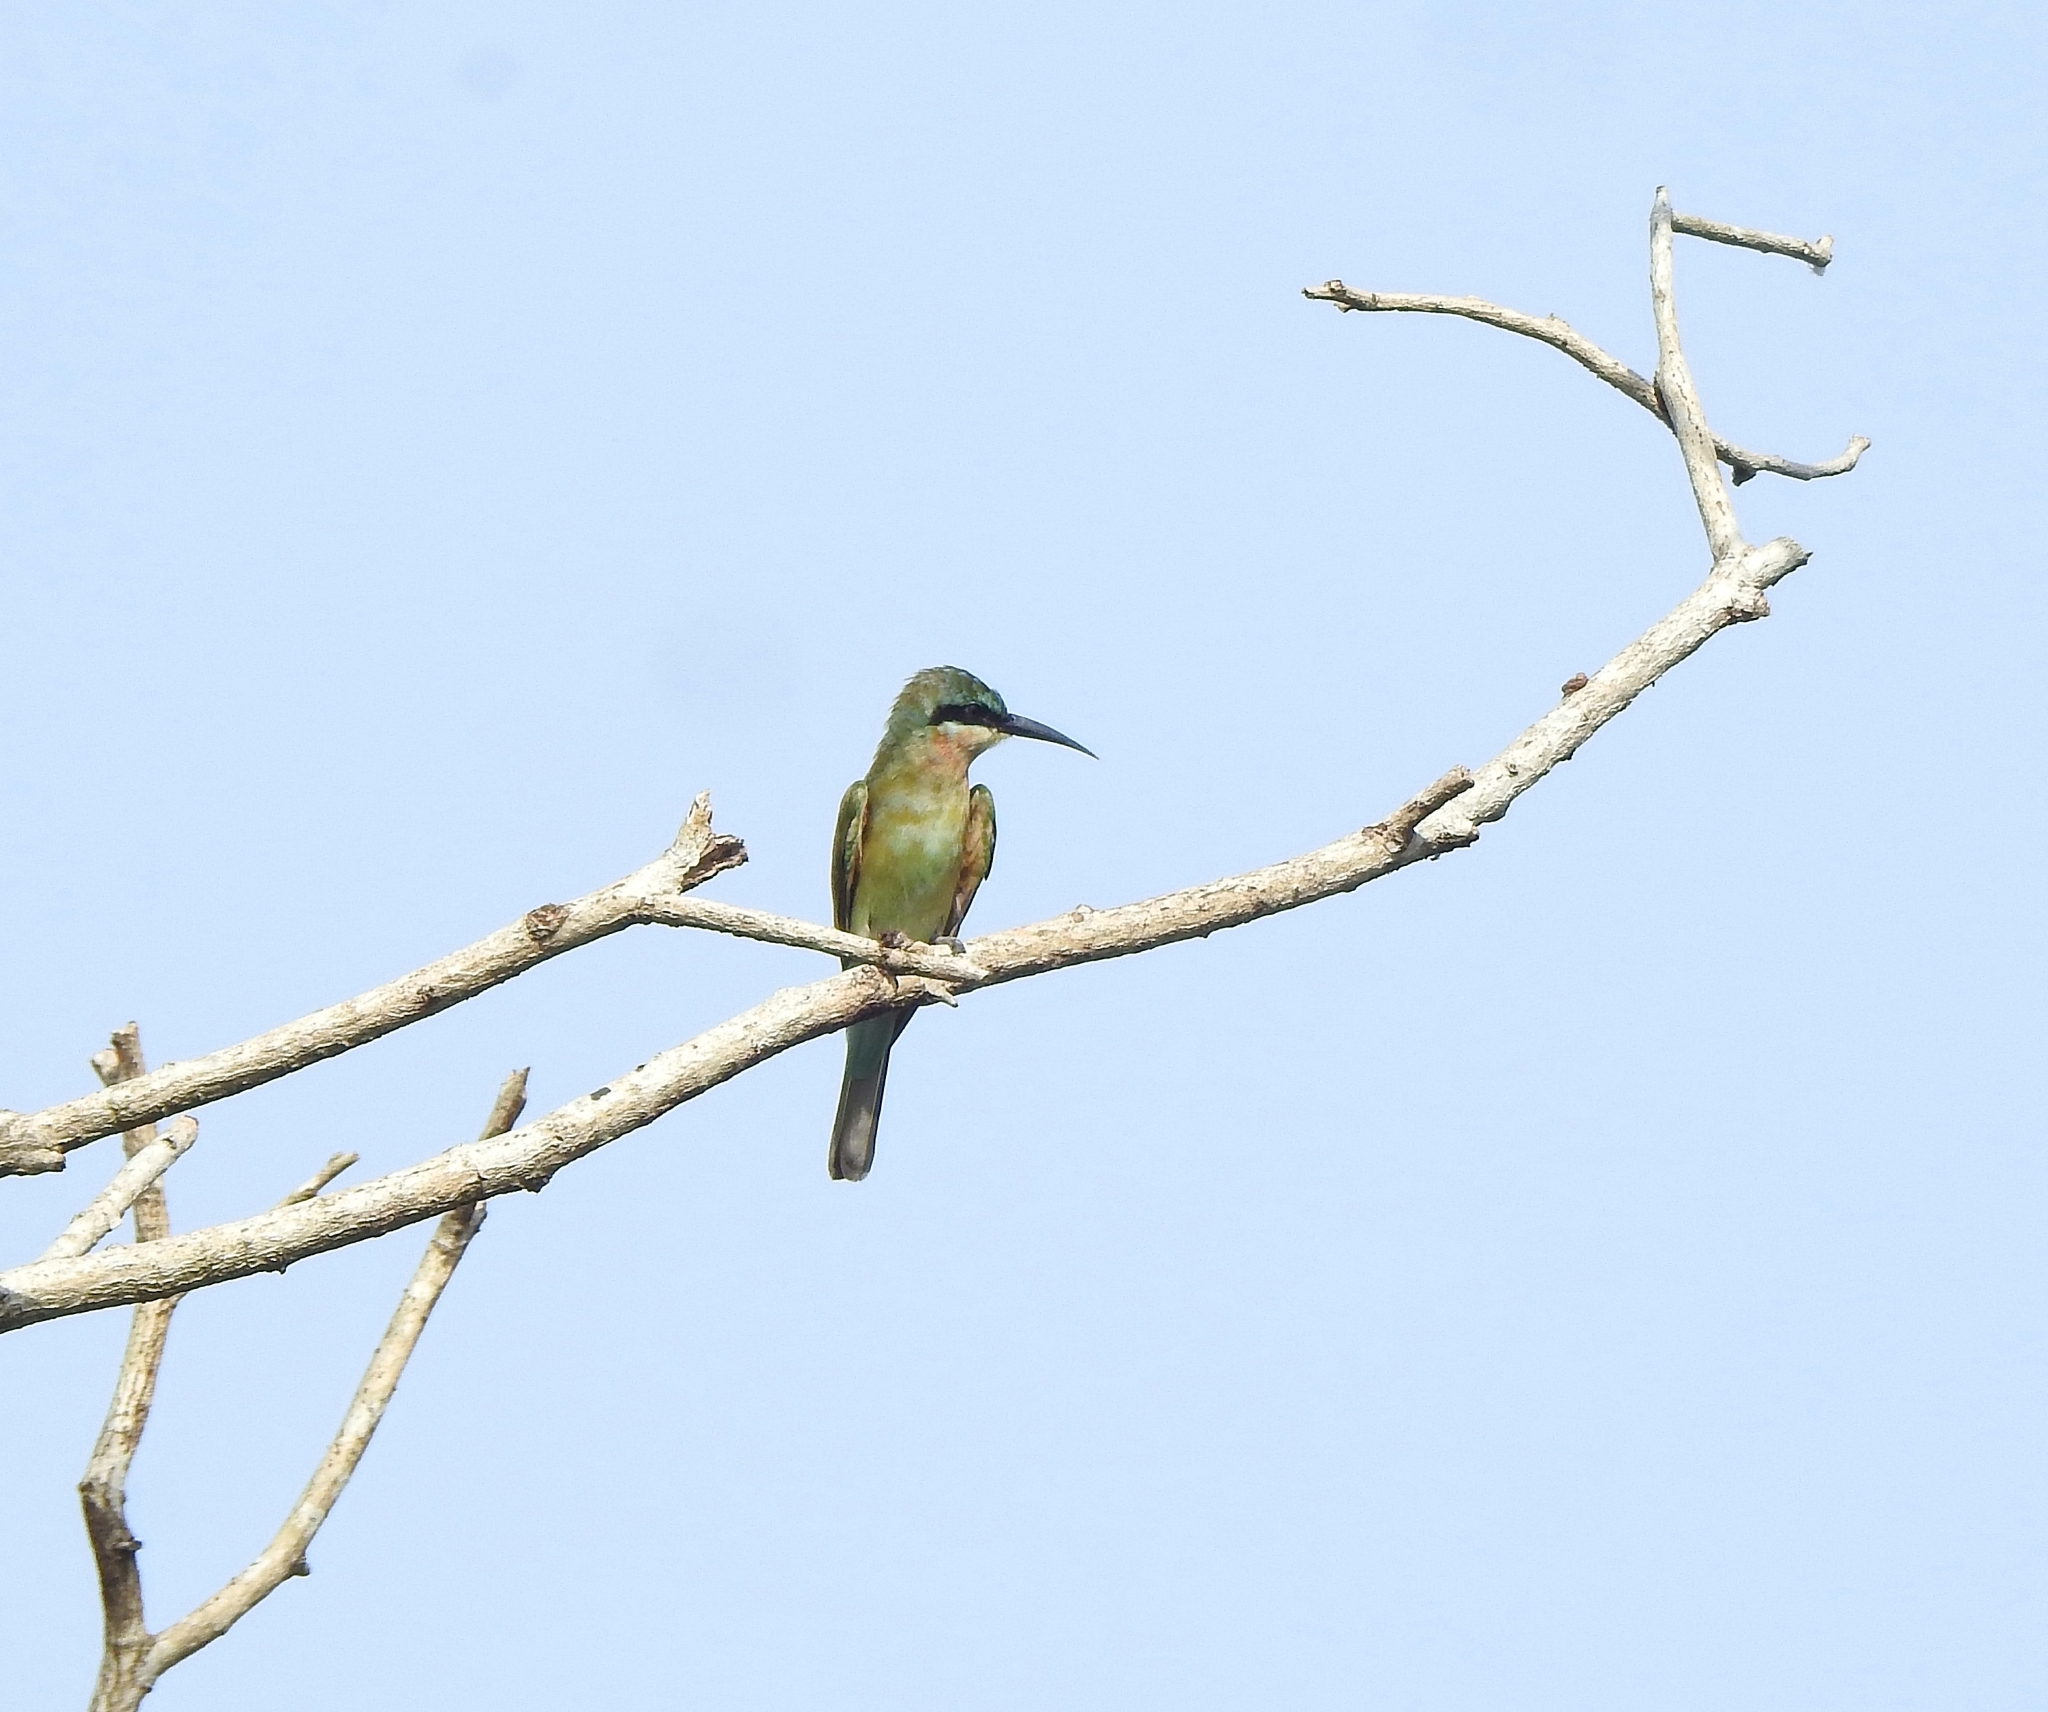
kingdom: Animalia
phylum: Chordata
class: Aves
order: Coraciiformes
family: Meropidae
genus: Merops
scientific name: Merops philippinus
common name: Blue-tailed bee-eater
